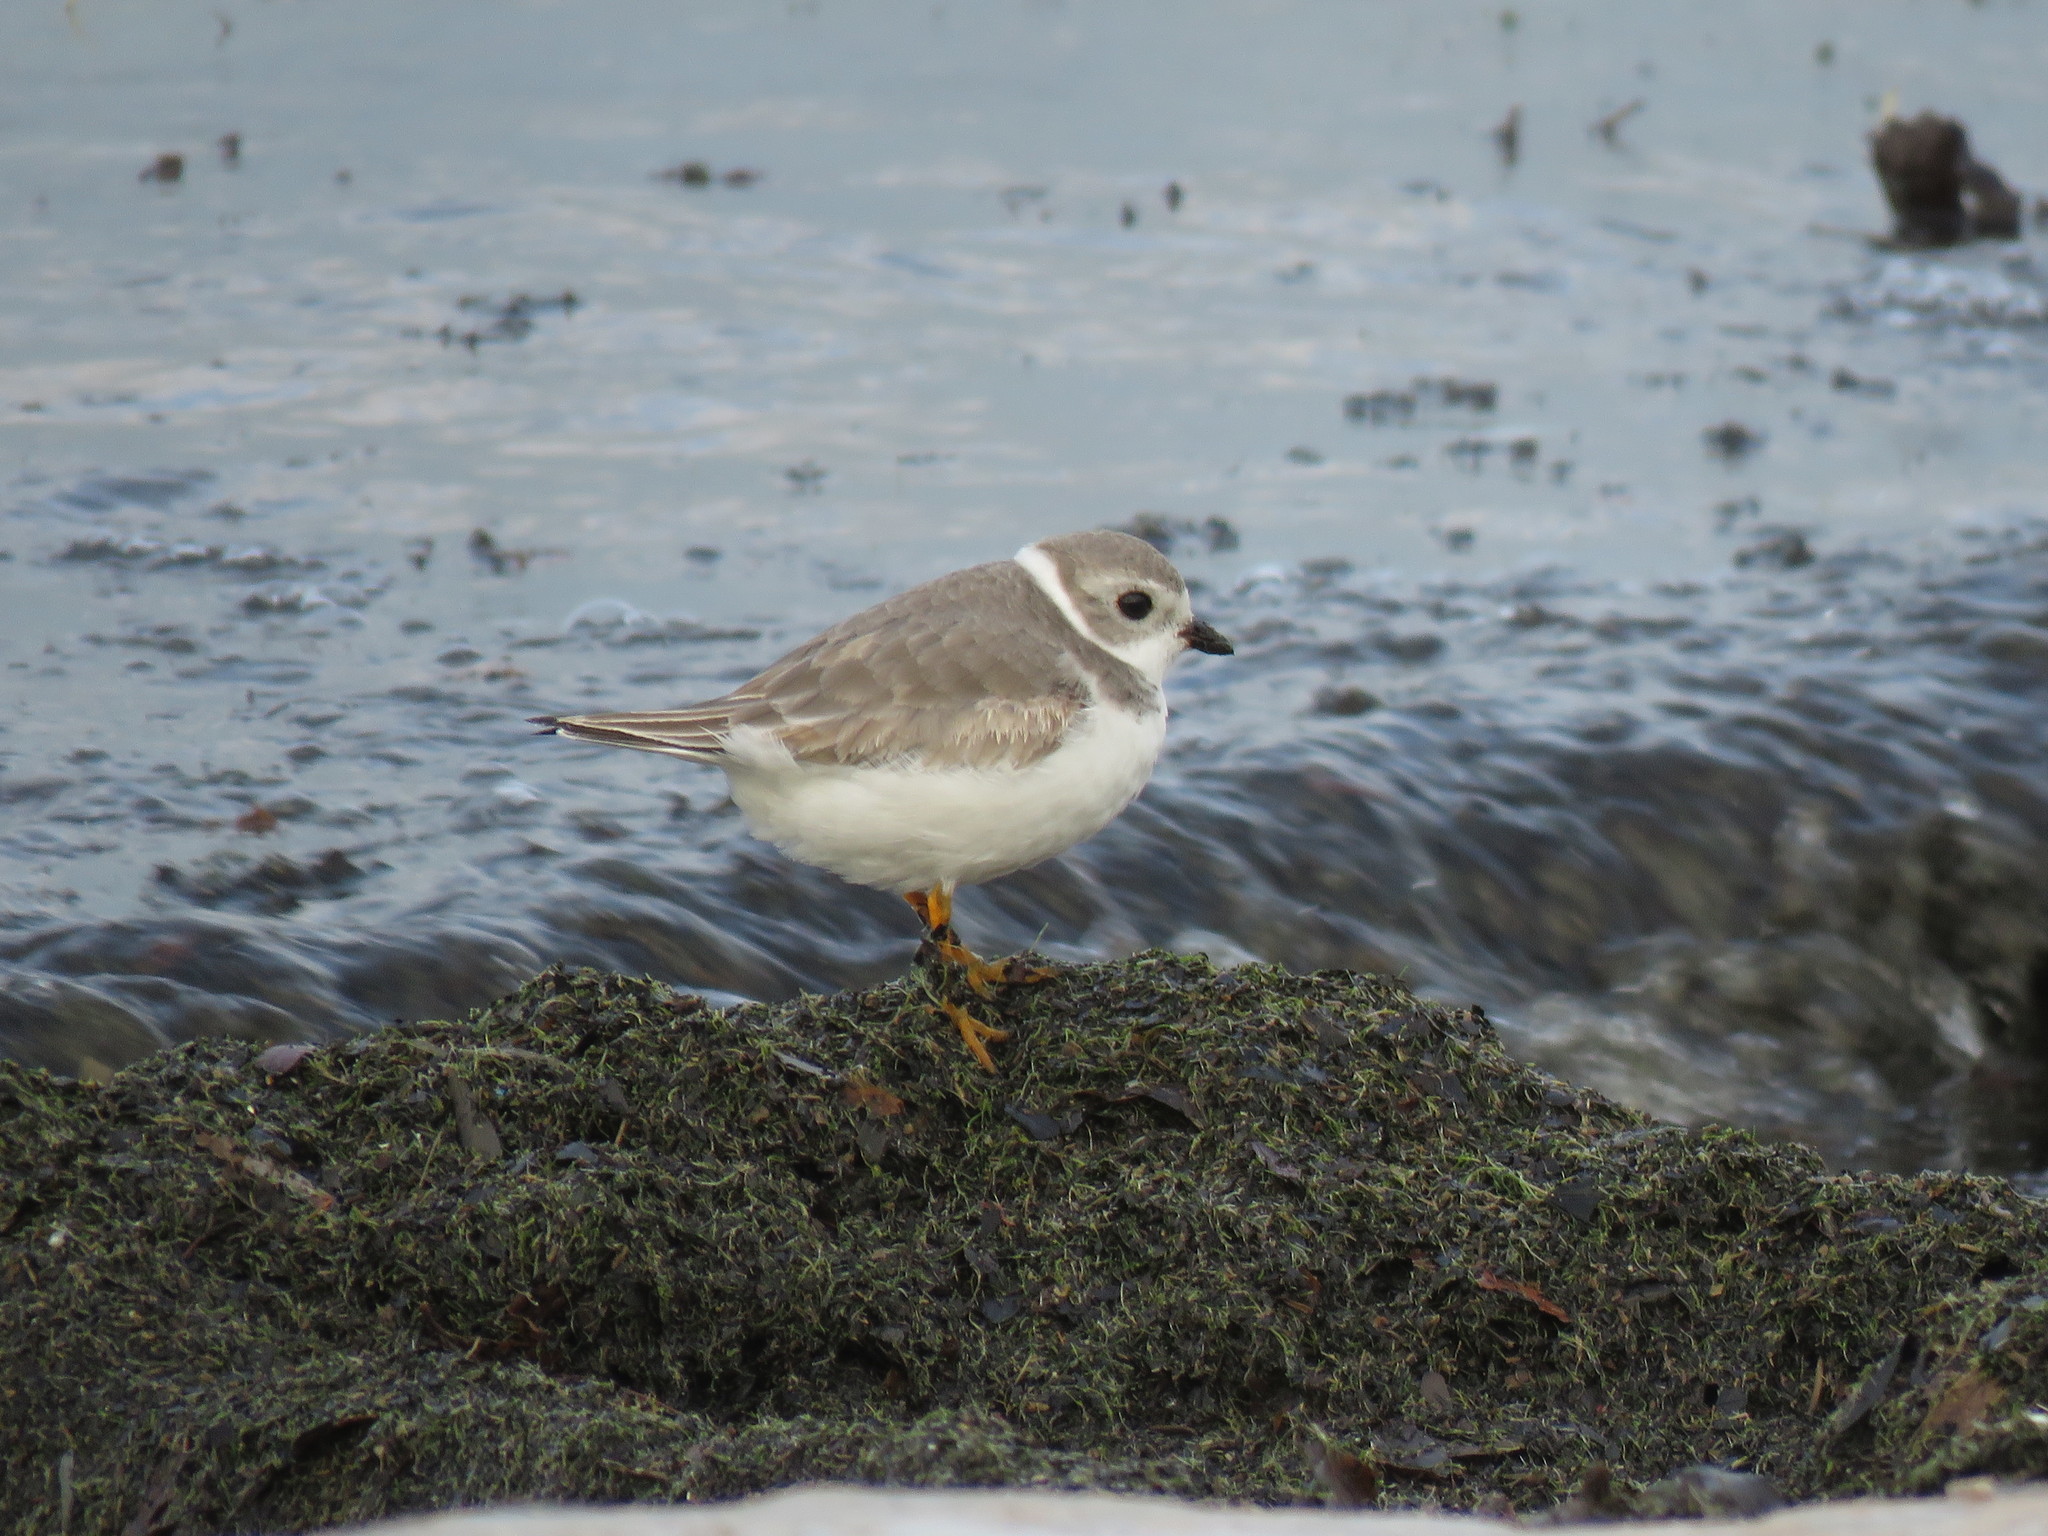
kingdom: Animalia
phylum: Chordata
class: Aves
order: Charadriiformes
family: Charadriidae
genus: Charadrius
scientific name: Charadrius melodus
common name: Piping plover
